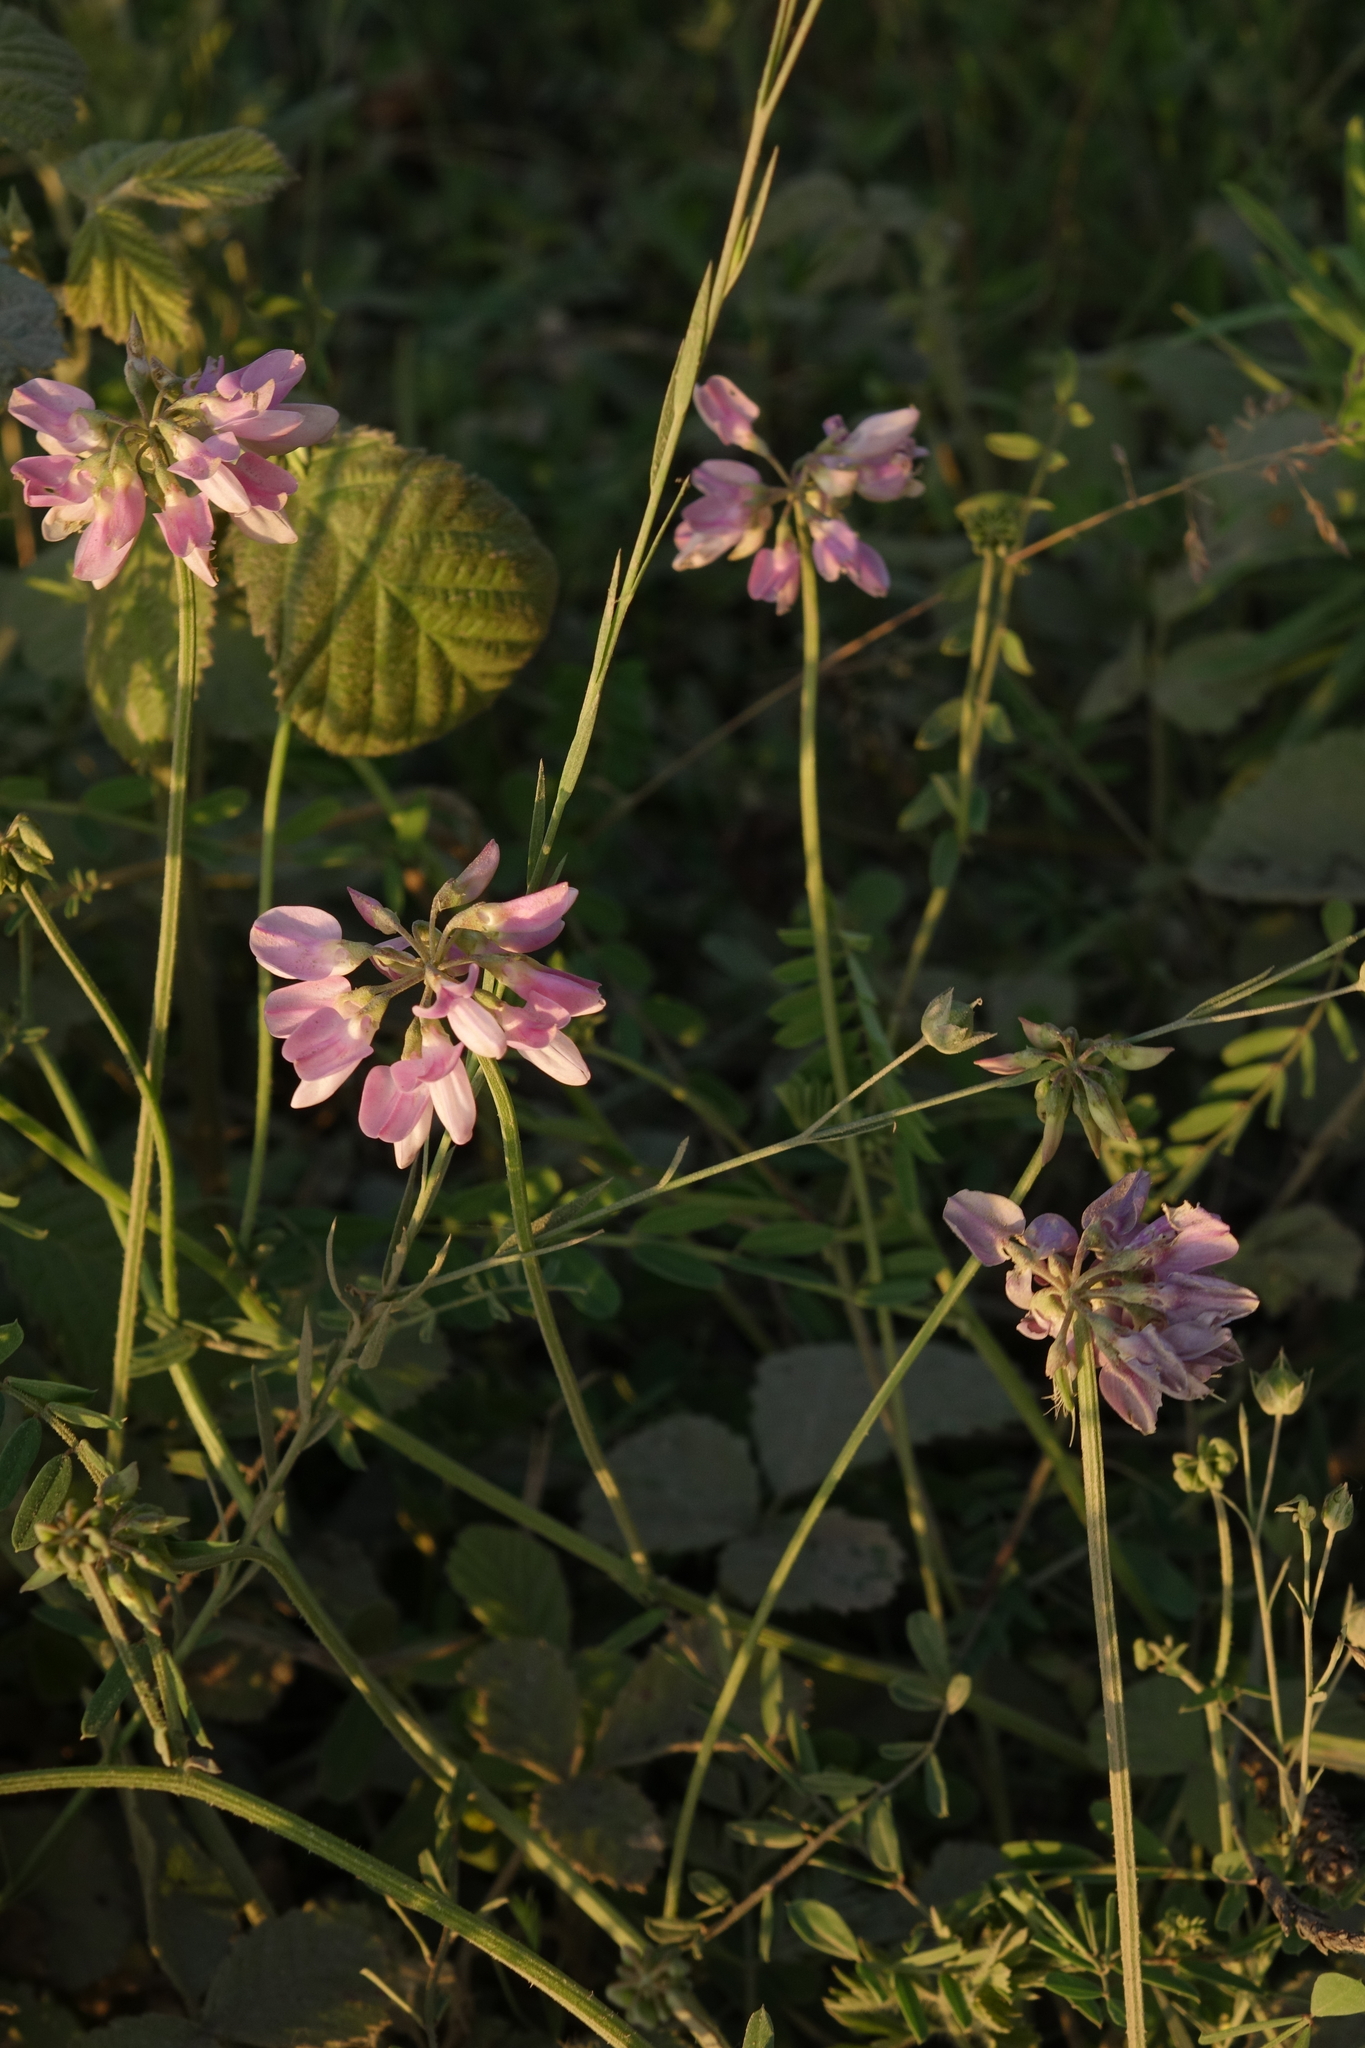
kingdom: Plantae
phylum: Tracheophyta
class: Magnoliopsida
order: Fabales
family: Fabaceae
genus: Coronilla
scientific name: Coronilla varia
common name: Crownvetch
